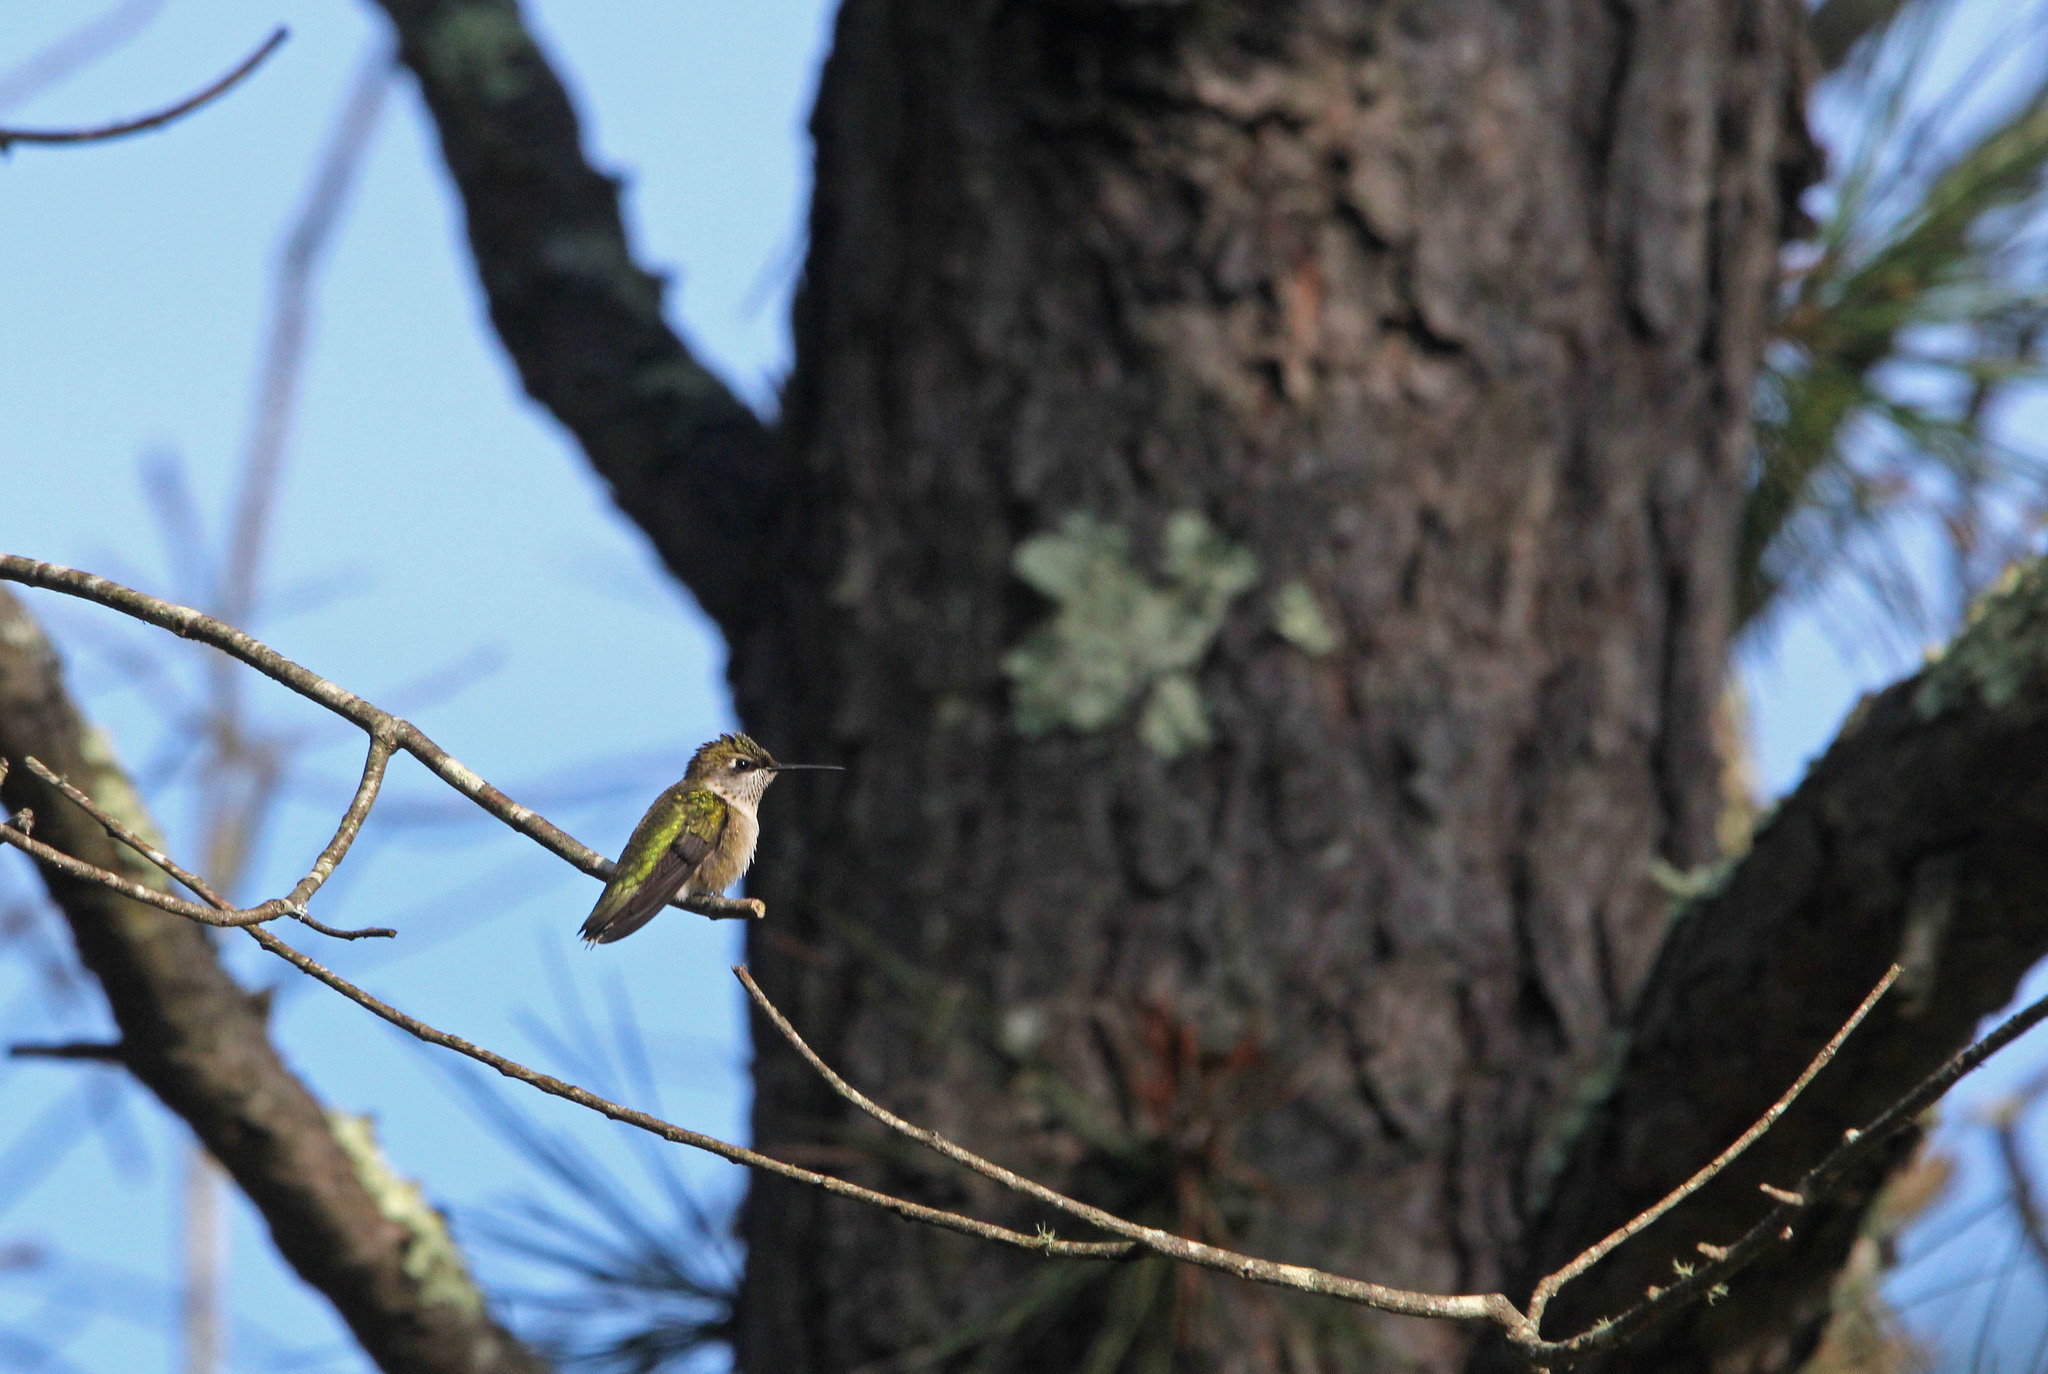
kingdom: Animalia
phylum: Chordata
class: Aves
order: Apodiformes
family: Trochilidae
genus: Archilochus
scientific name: Archilochus colubris
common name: Ruby-throated hummingbird
